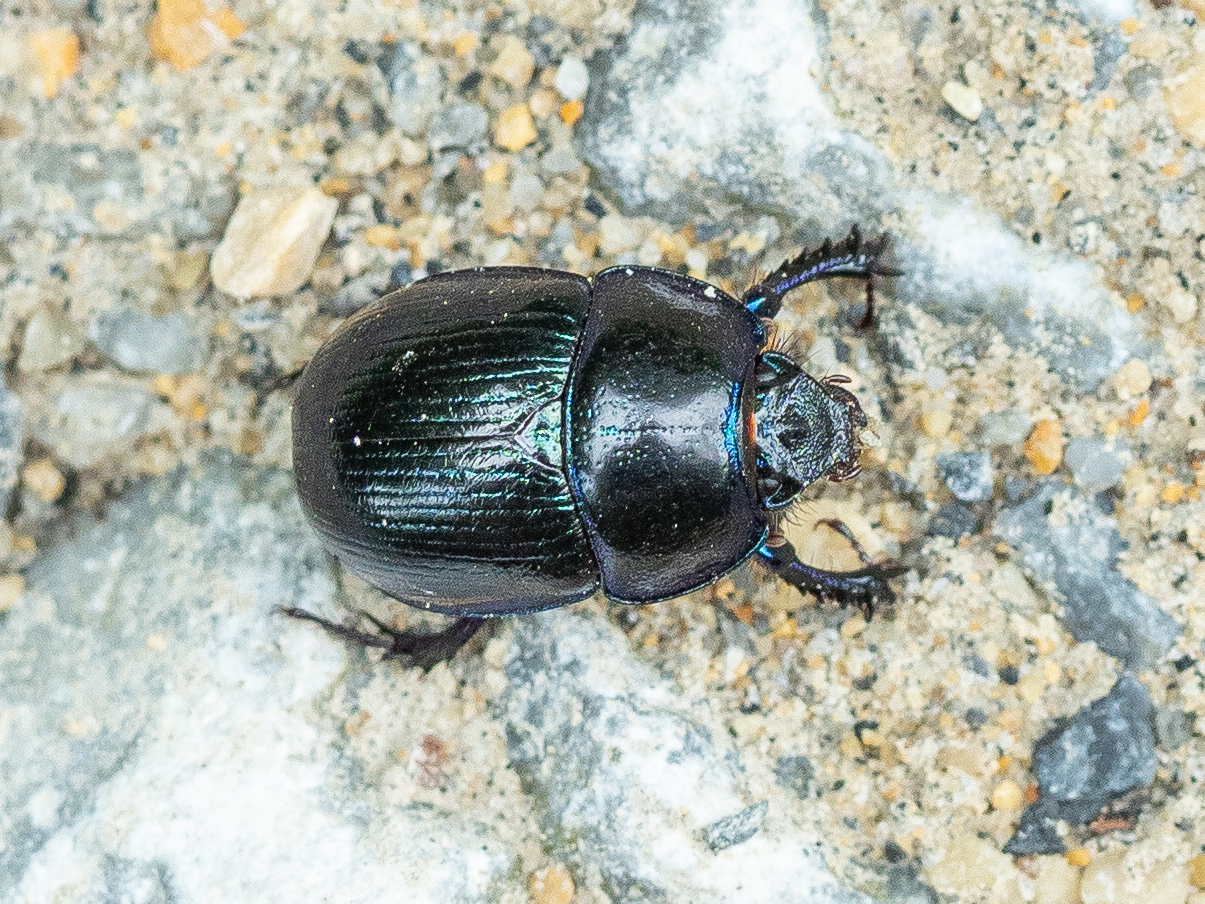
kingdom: Animalia
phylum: Arthropoda
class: Insecta
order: Coleoptera
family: Geotrupidae
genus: Anoplotrupes
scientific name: Anoplotrupes stercorosus
